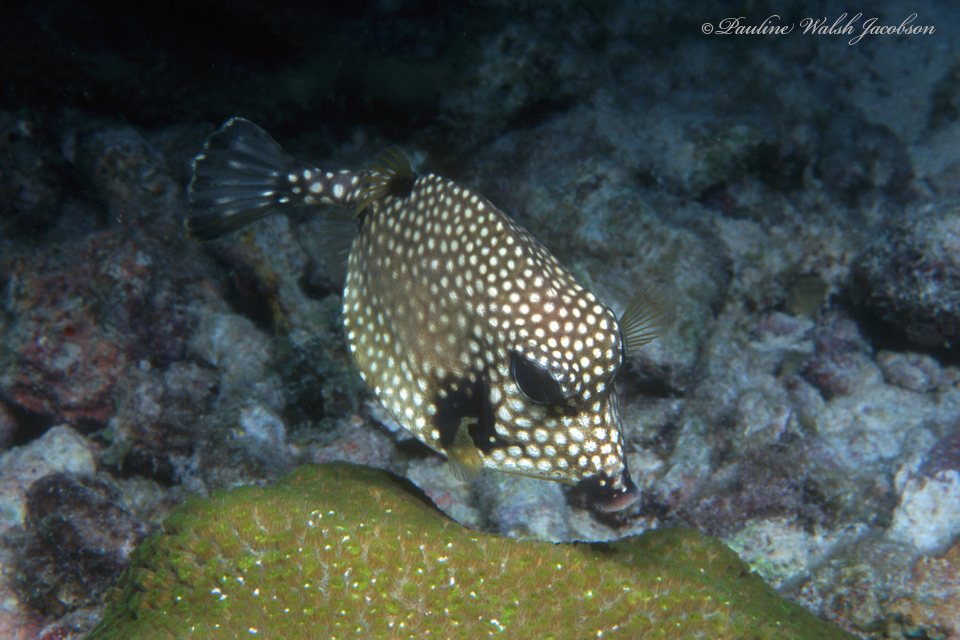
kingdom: Animalia
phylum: Chordata
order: Tetraodontiformes
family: Ostraciidae
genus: Lactophrys
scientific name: Lactophrys triqueter
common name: Smooth trunkfish
